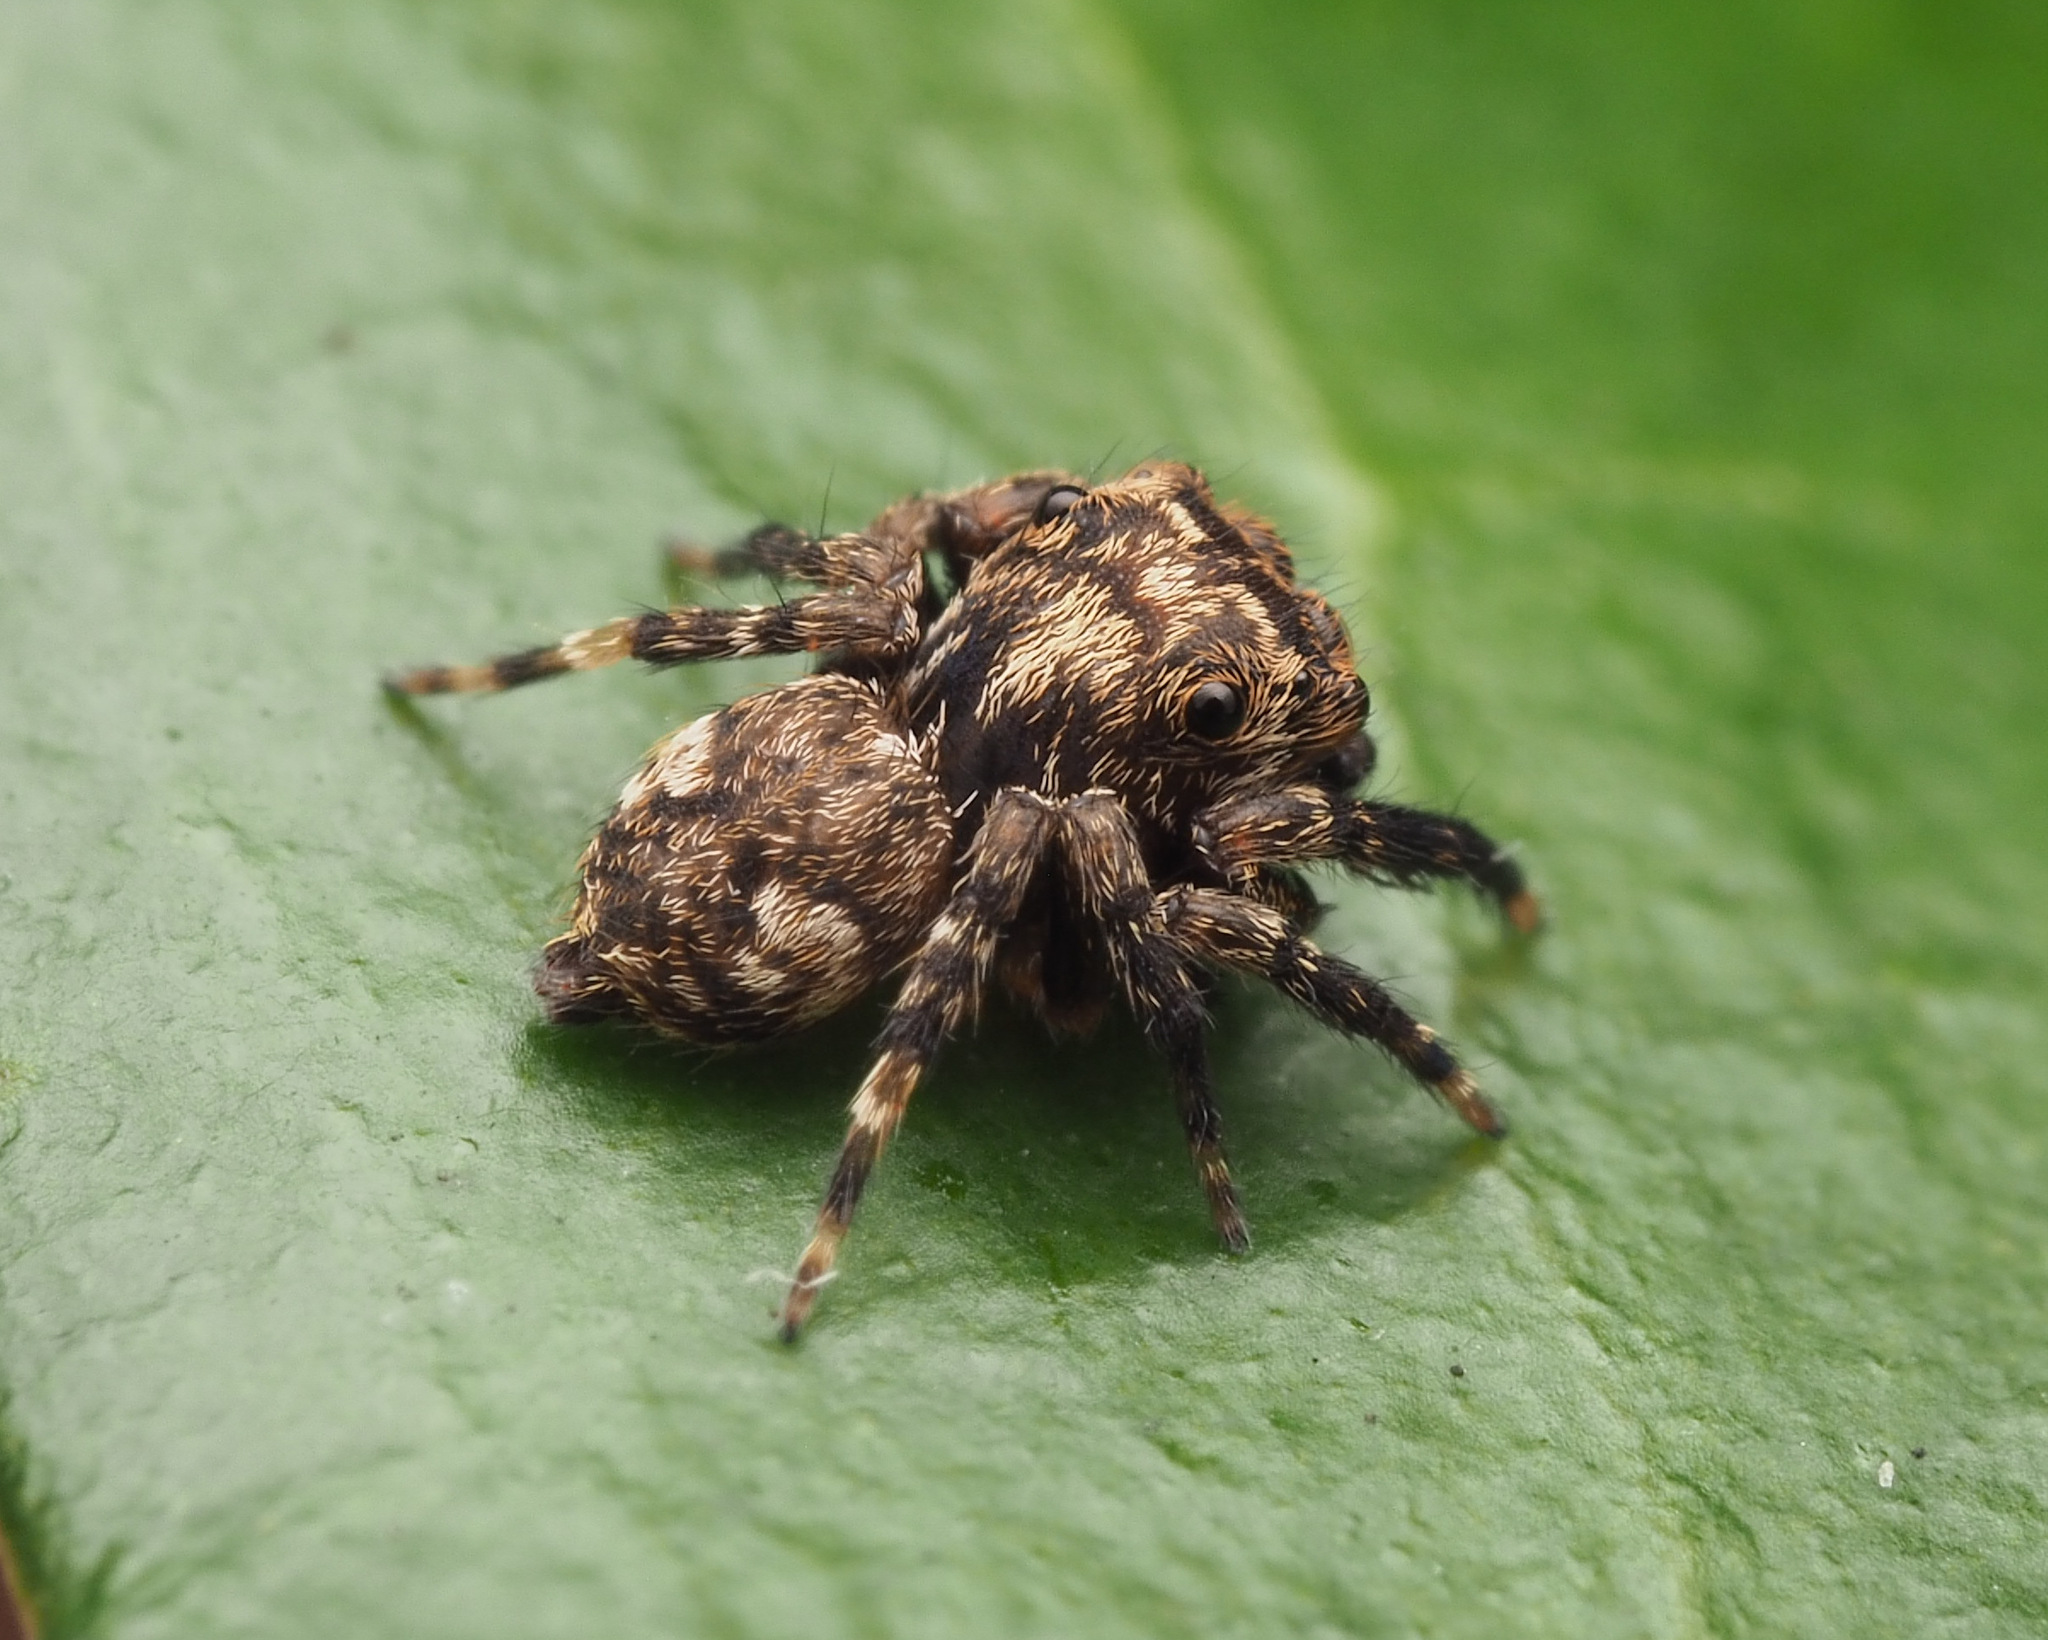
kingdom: Animalia
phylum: Arthropoda
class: Arachnida
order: Araneae
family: Salticidae
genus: Papuaneon
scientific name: Papuaneon
